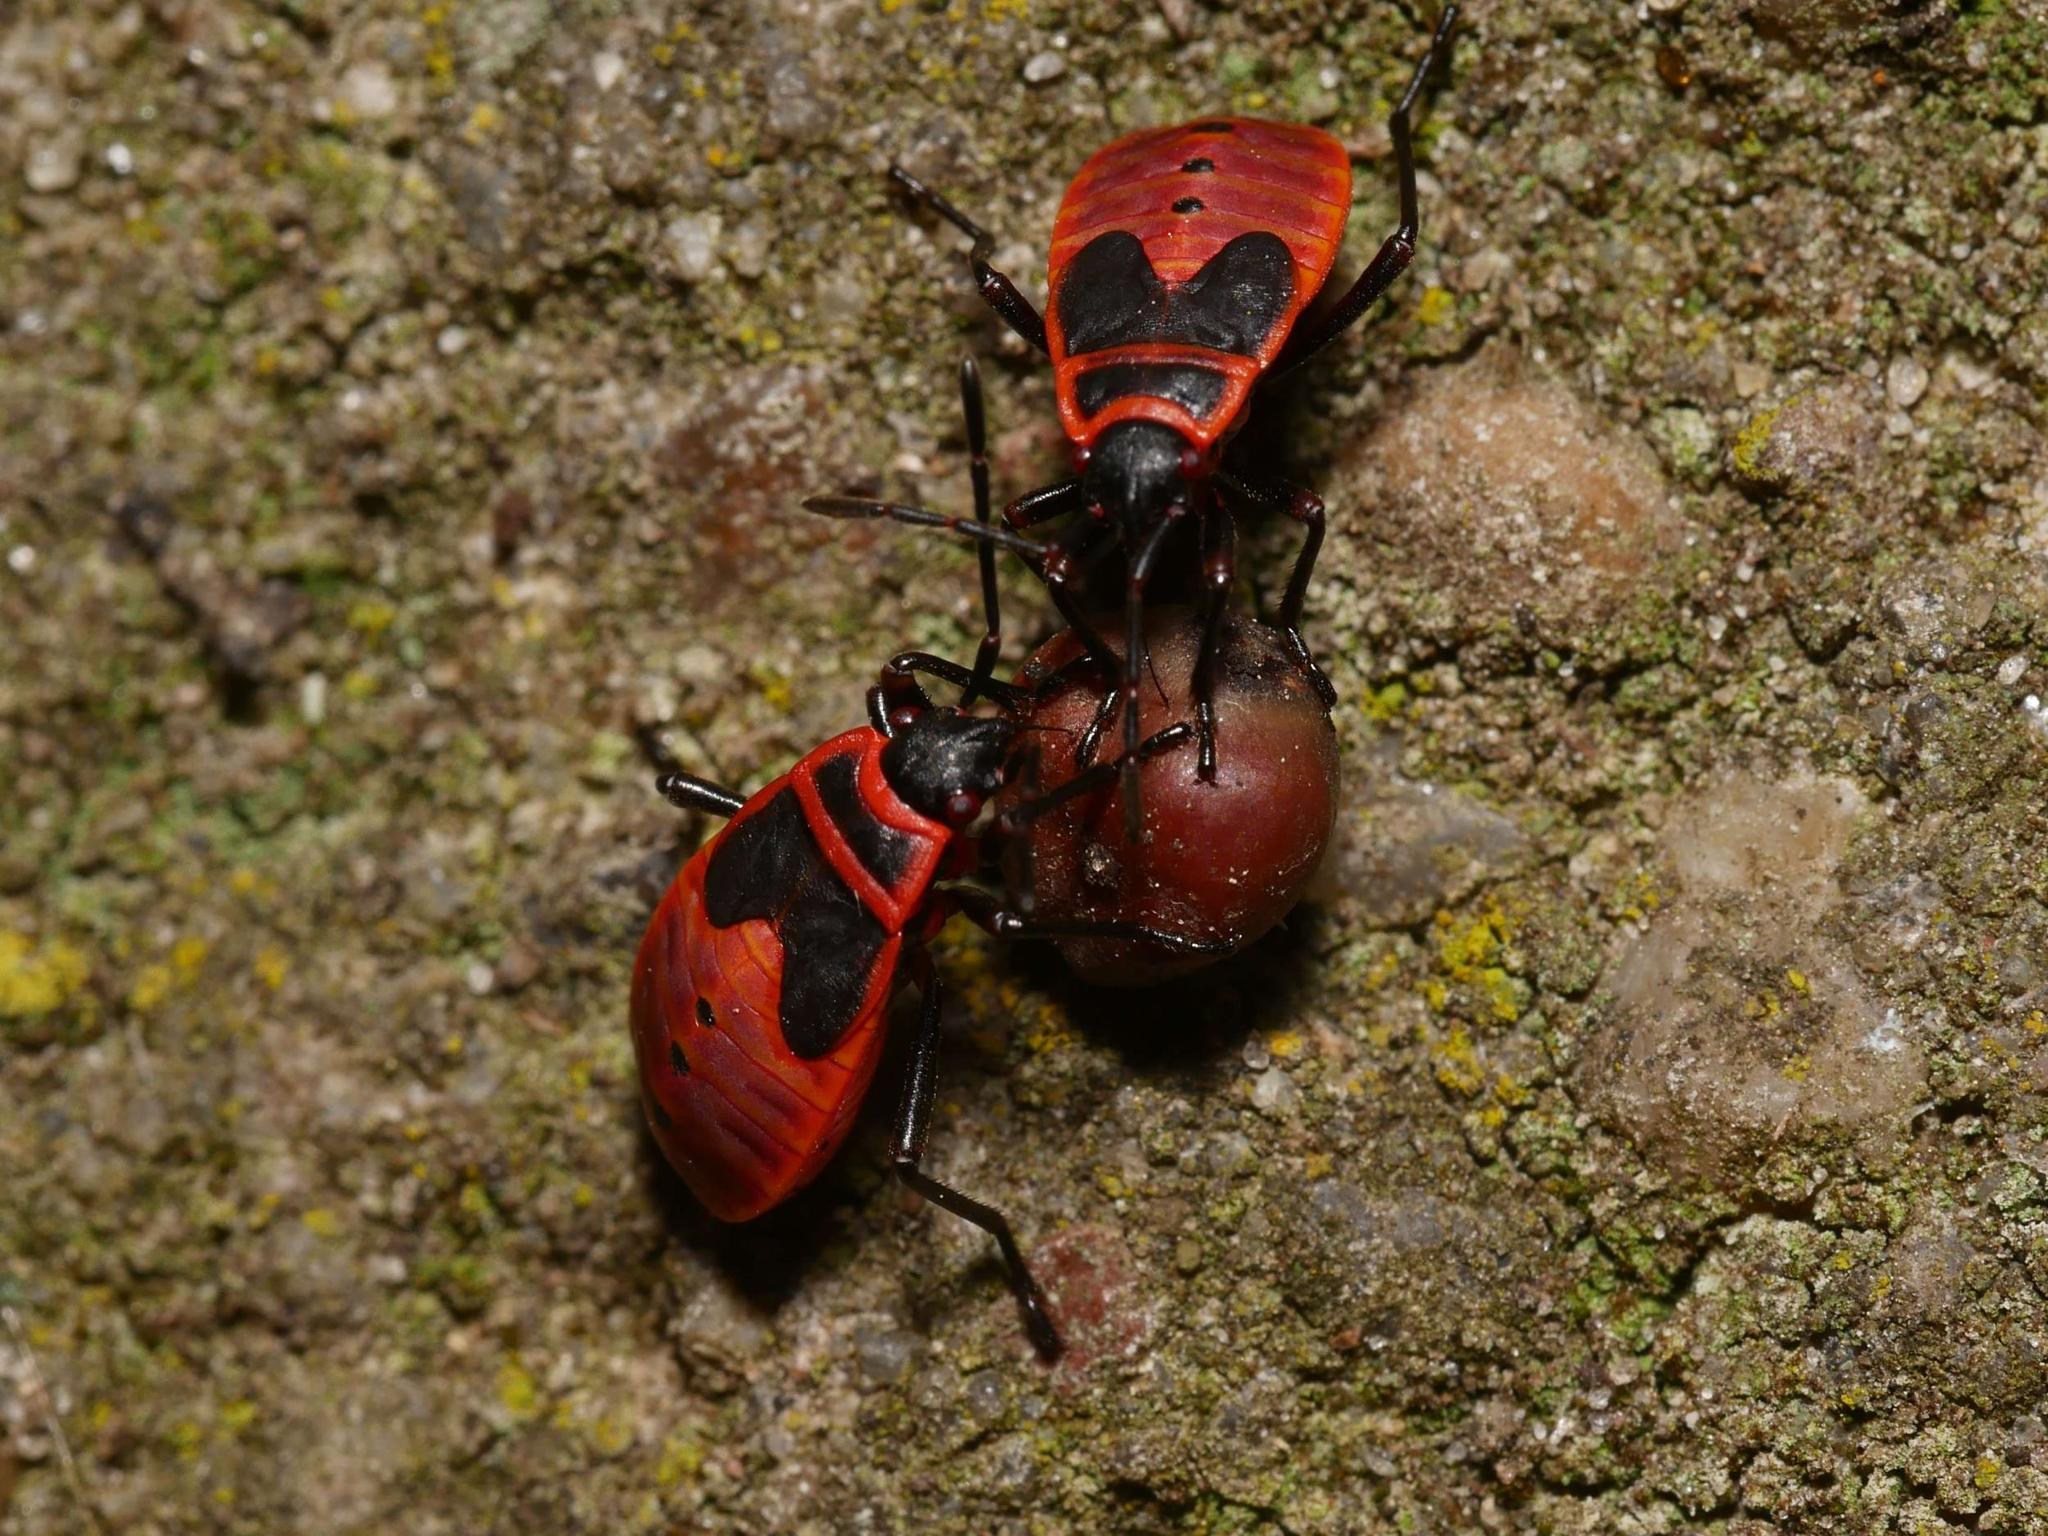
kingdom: Animalia
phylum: Arthropoda
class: Insecta
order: Hemiptera
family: Pyrrhocoridae
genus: Pyrrhocoris
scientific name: Pyrrhocoris apterus
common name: Firebug
